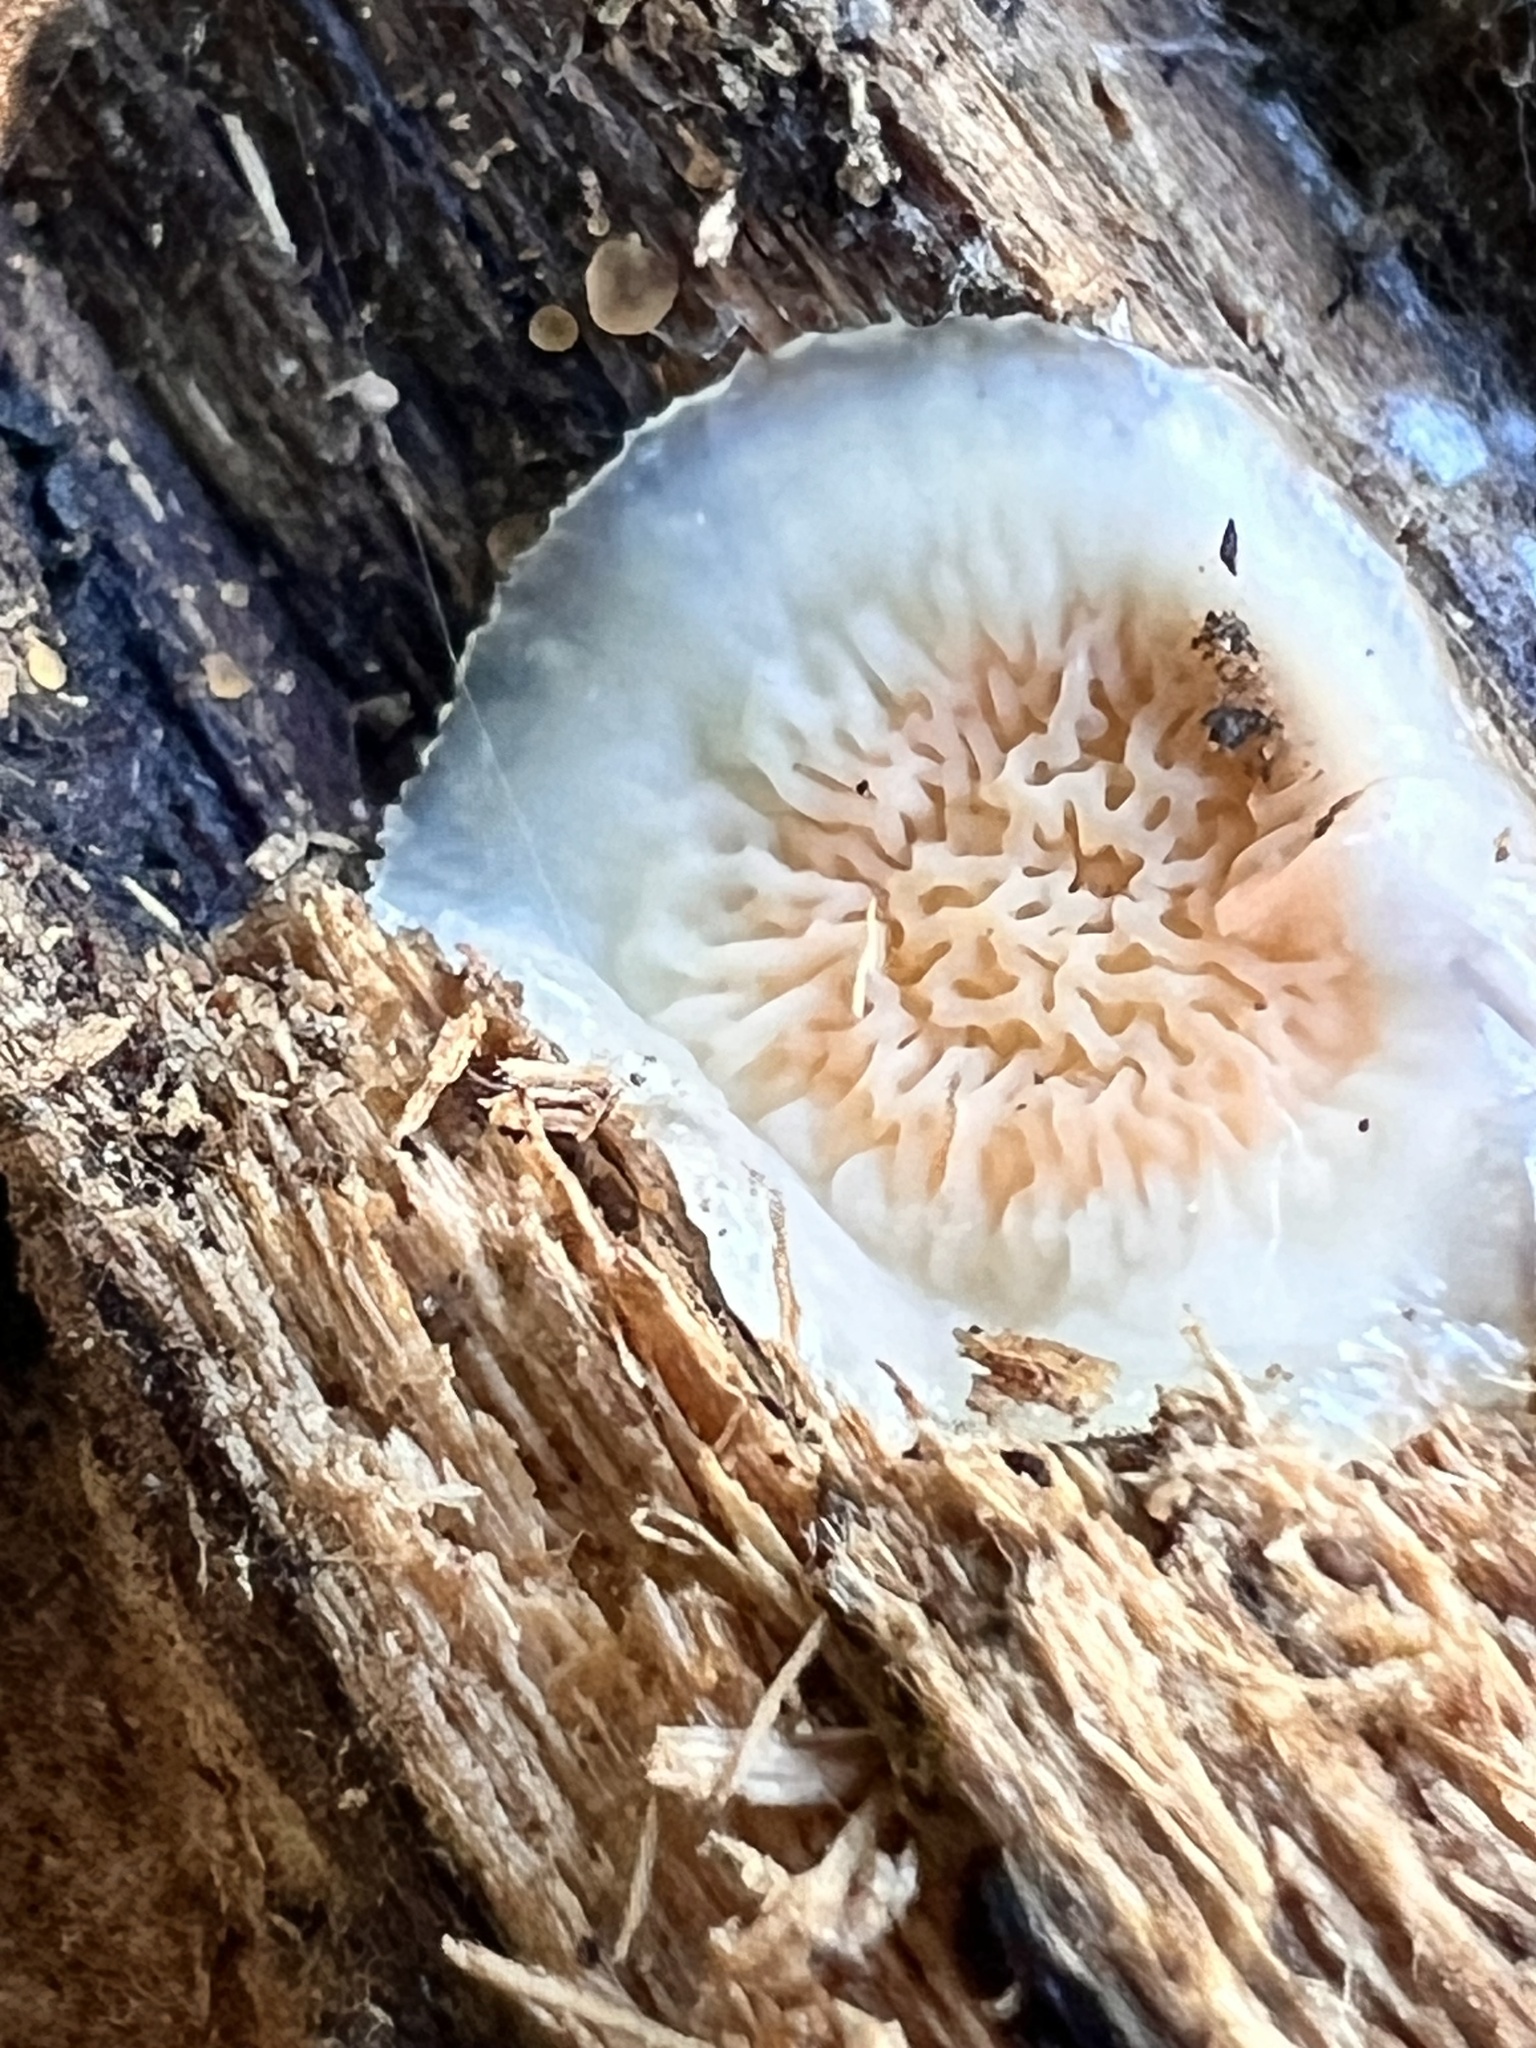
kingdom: Fungi
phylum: Basidiomycota
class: Agaricomycetes
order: Polyporales
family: Meruliaceae
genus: Phlebia
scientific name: Phlebia tremellosa
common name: Jelly rot
